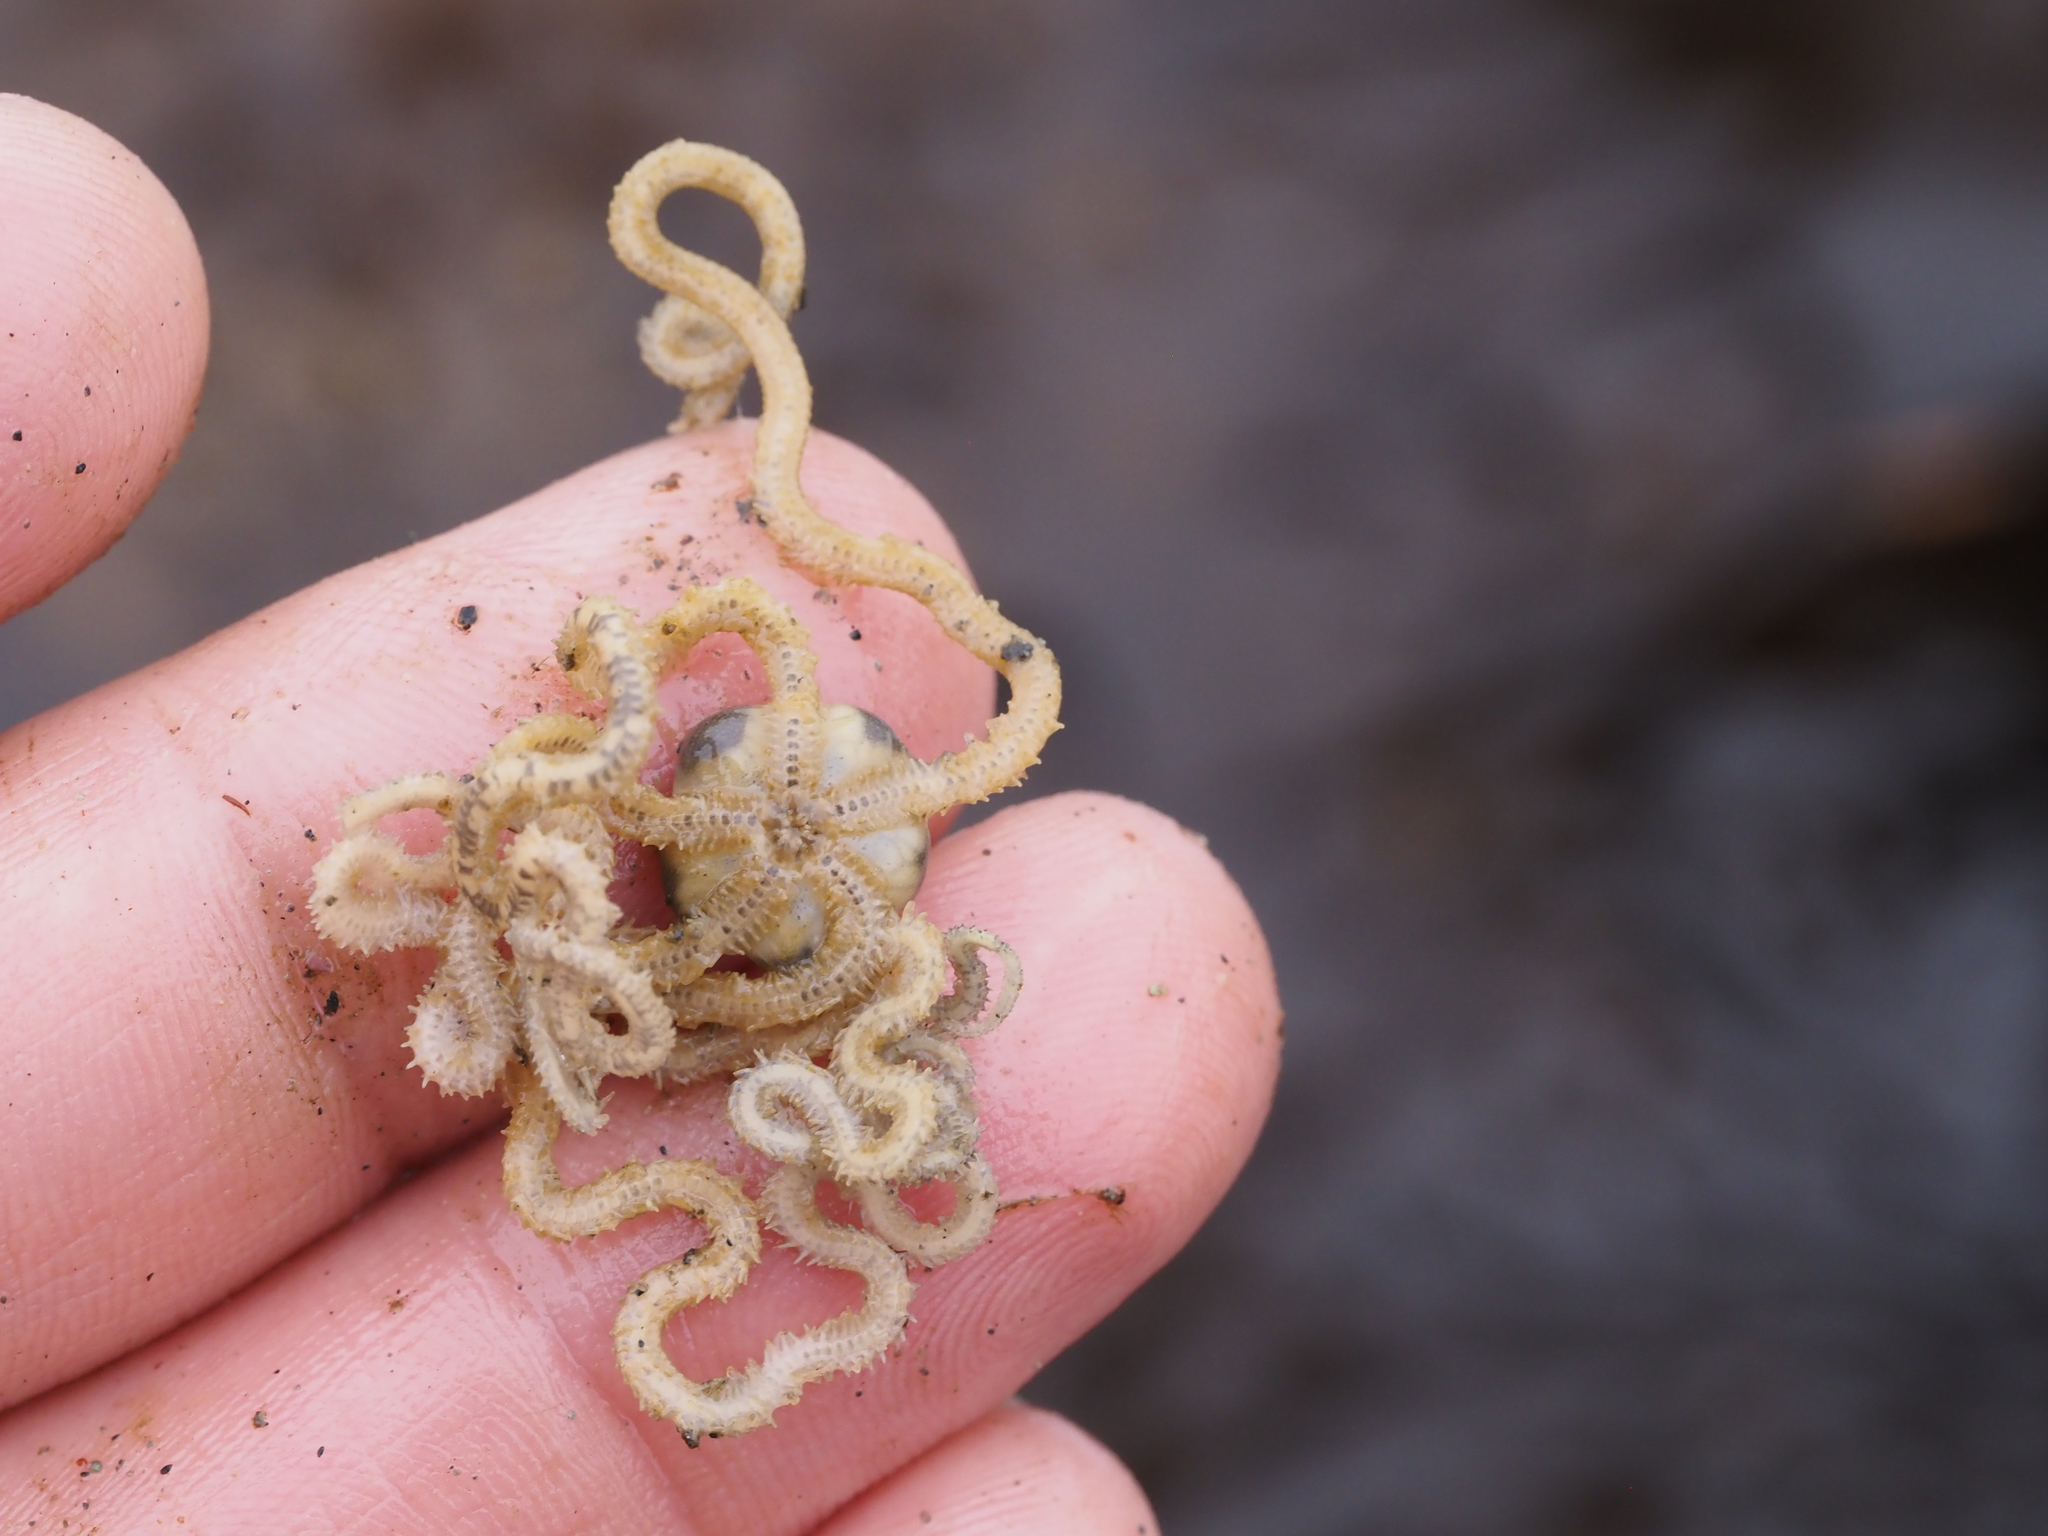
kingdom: Animalia
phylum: Echinodermata
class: Ophiuroidea
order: Amphilepidida
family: Amphiuridae
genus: Amphiodia
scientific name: Amphiodia occidentalis
